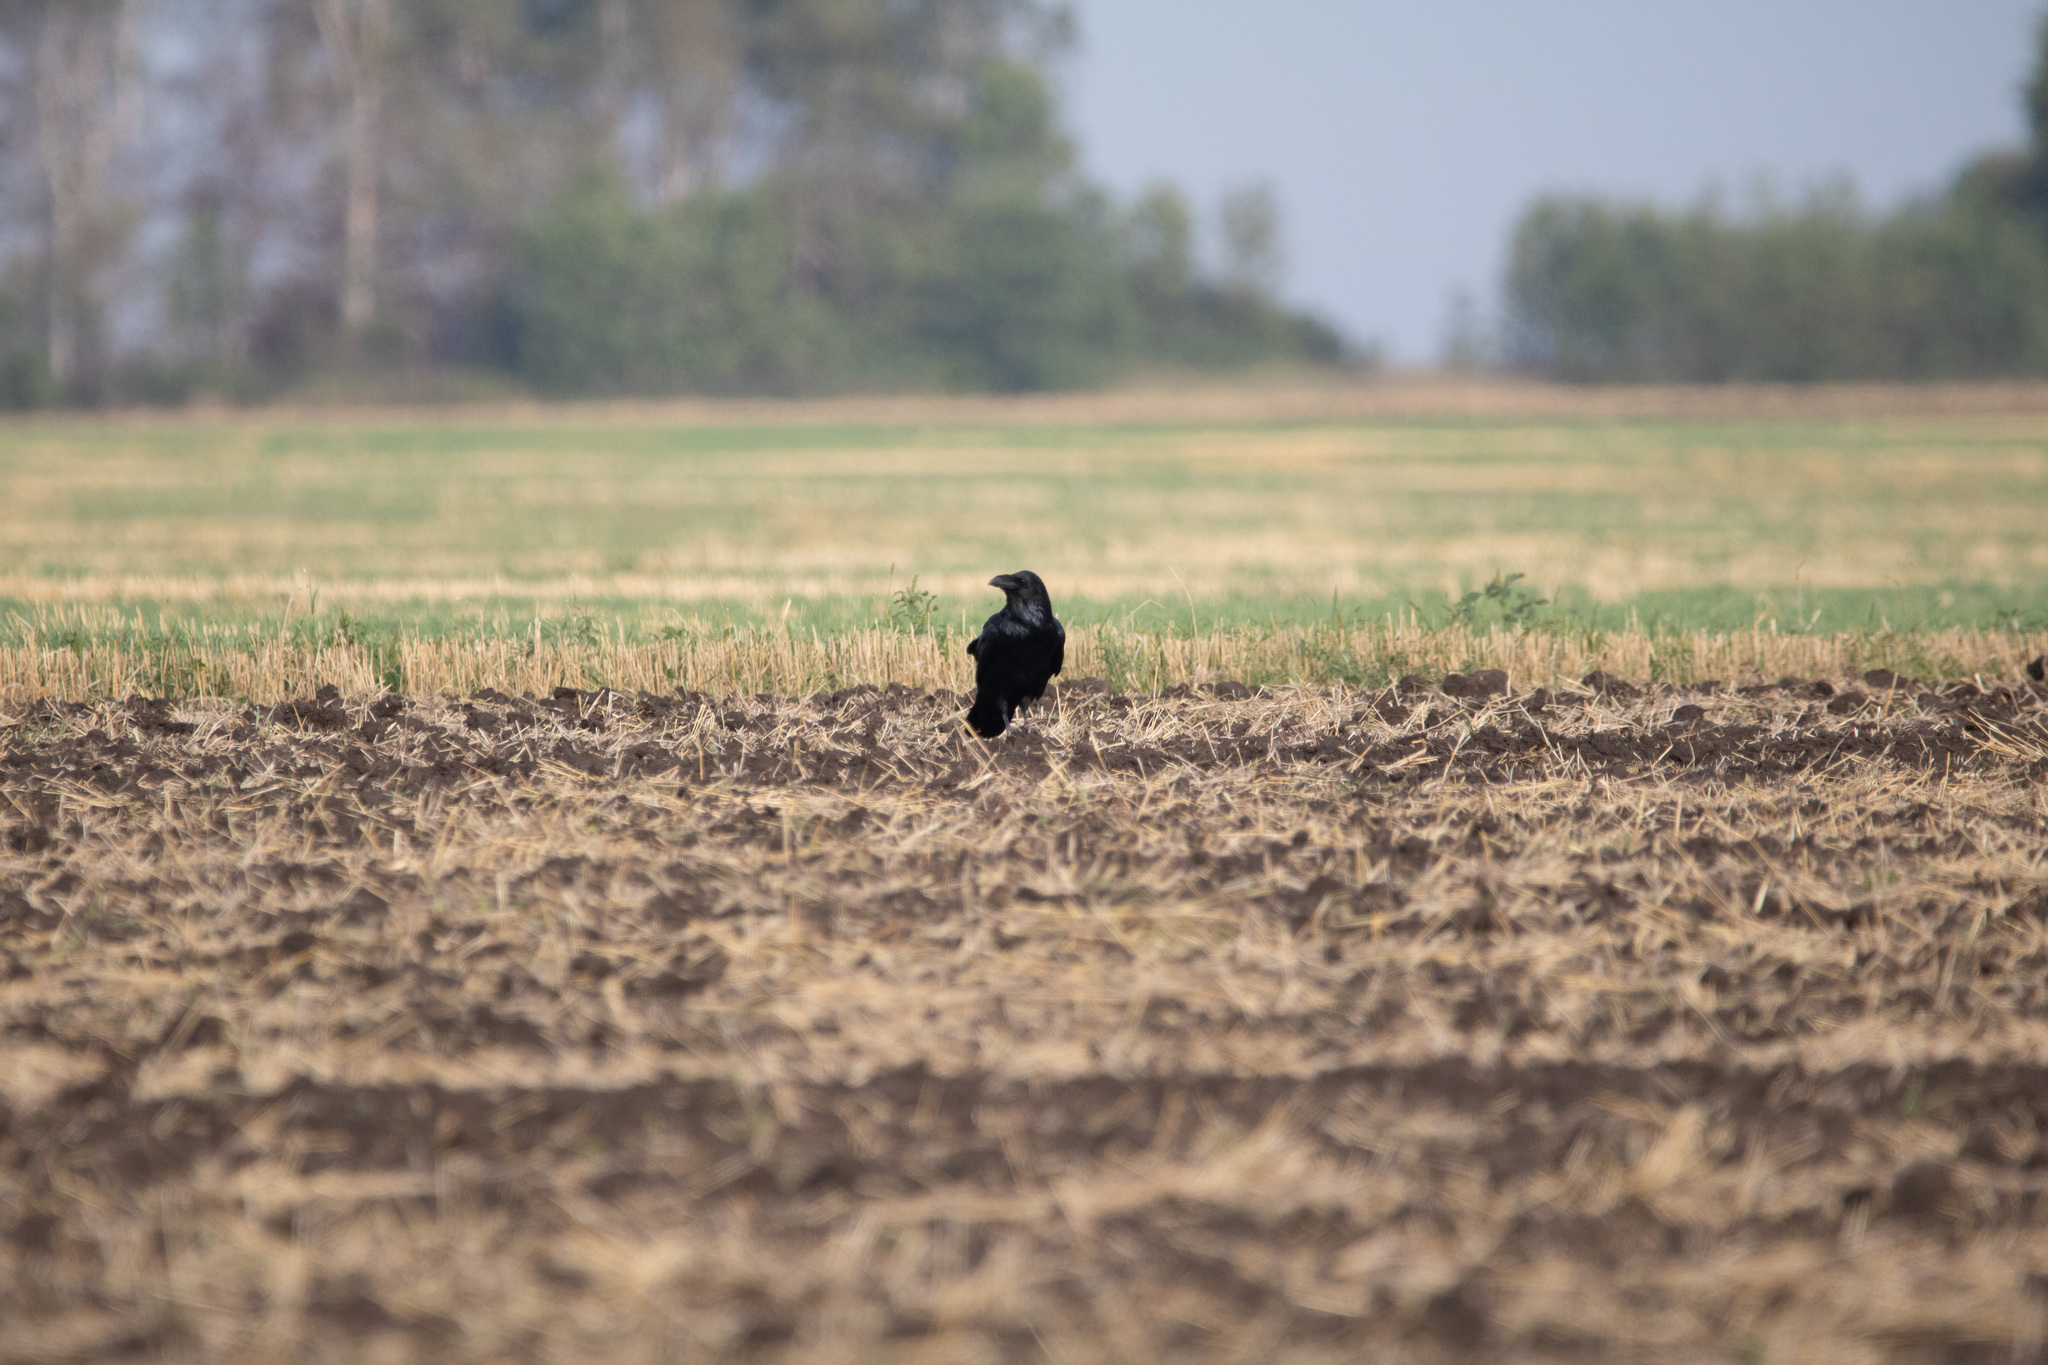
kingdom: Animalia
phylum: Chordata
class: Aves
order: Passeriformes
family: Corvidae
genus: Corvus
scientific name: Corvus corax
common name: Common raven
